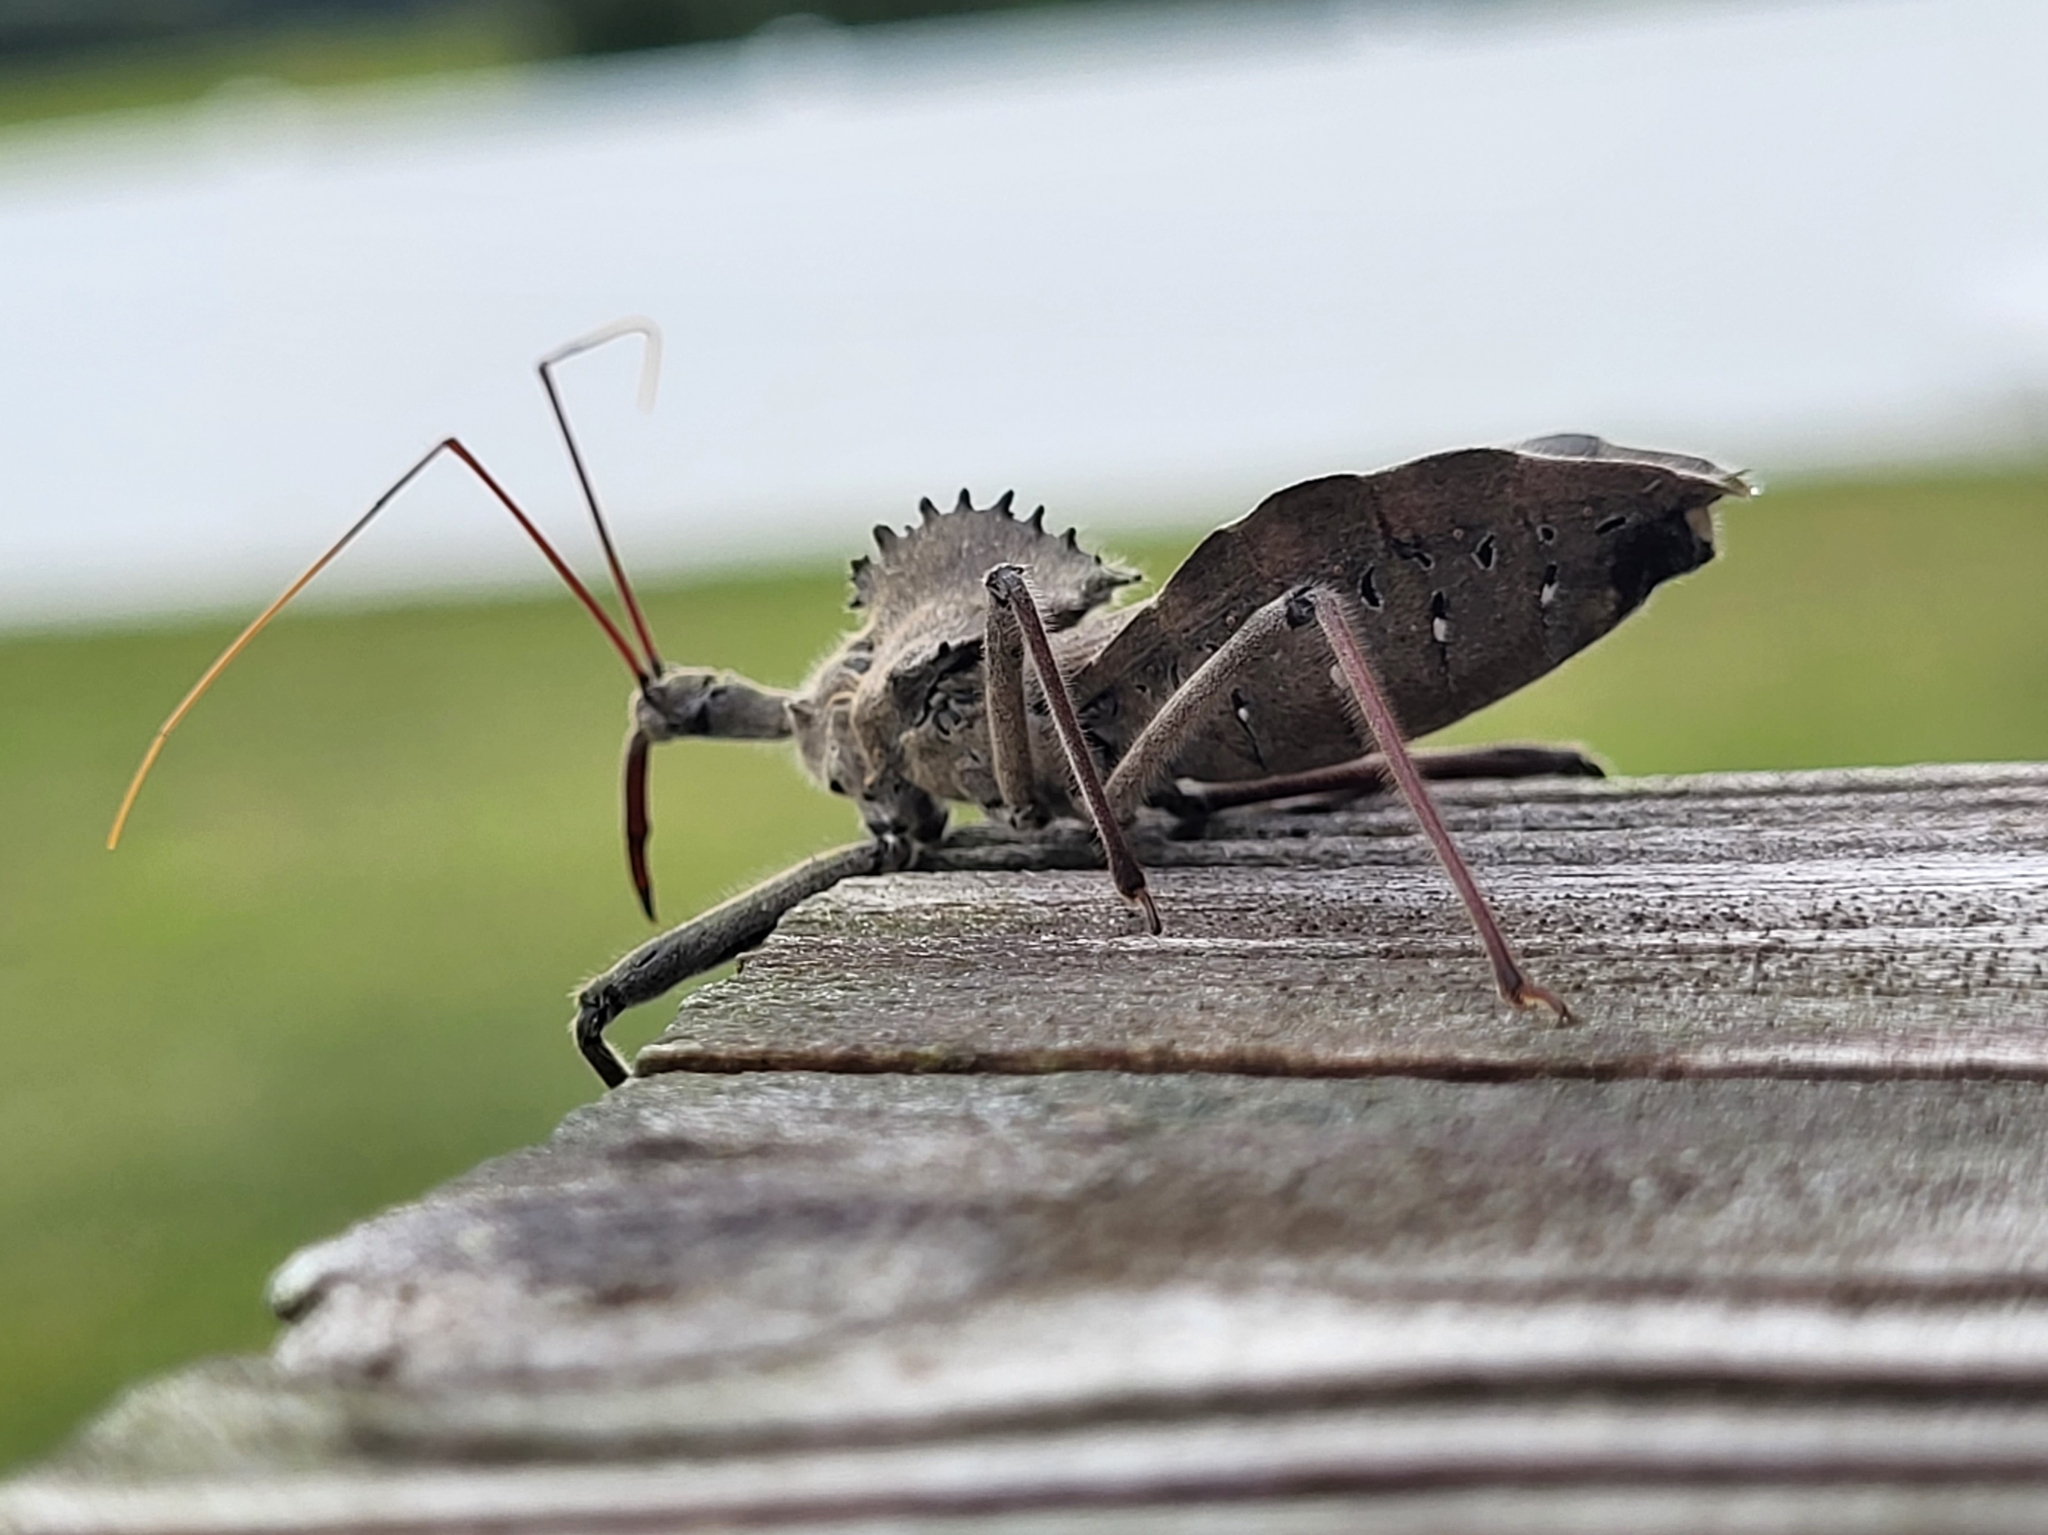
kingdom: Animalia
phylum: Arthropoda
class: Insecta
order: Hemiptera
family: Reduviidae
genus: Arilus
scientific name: Arilus cristatus
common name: North american wheel bug
